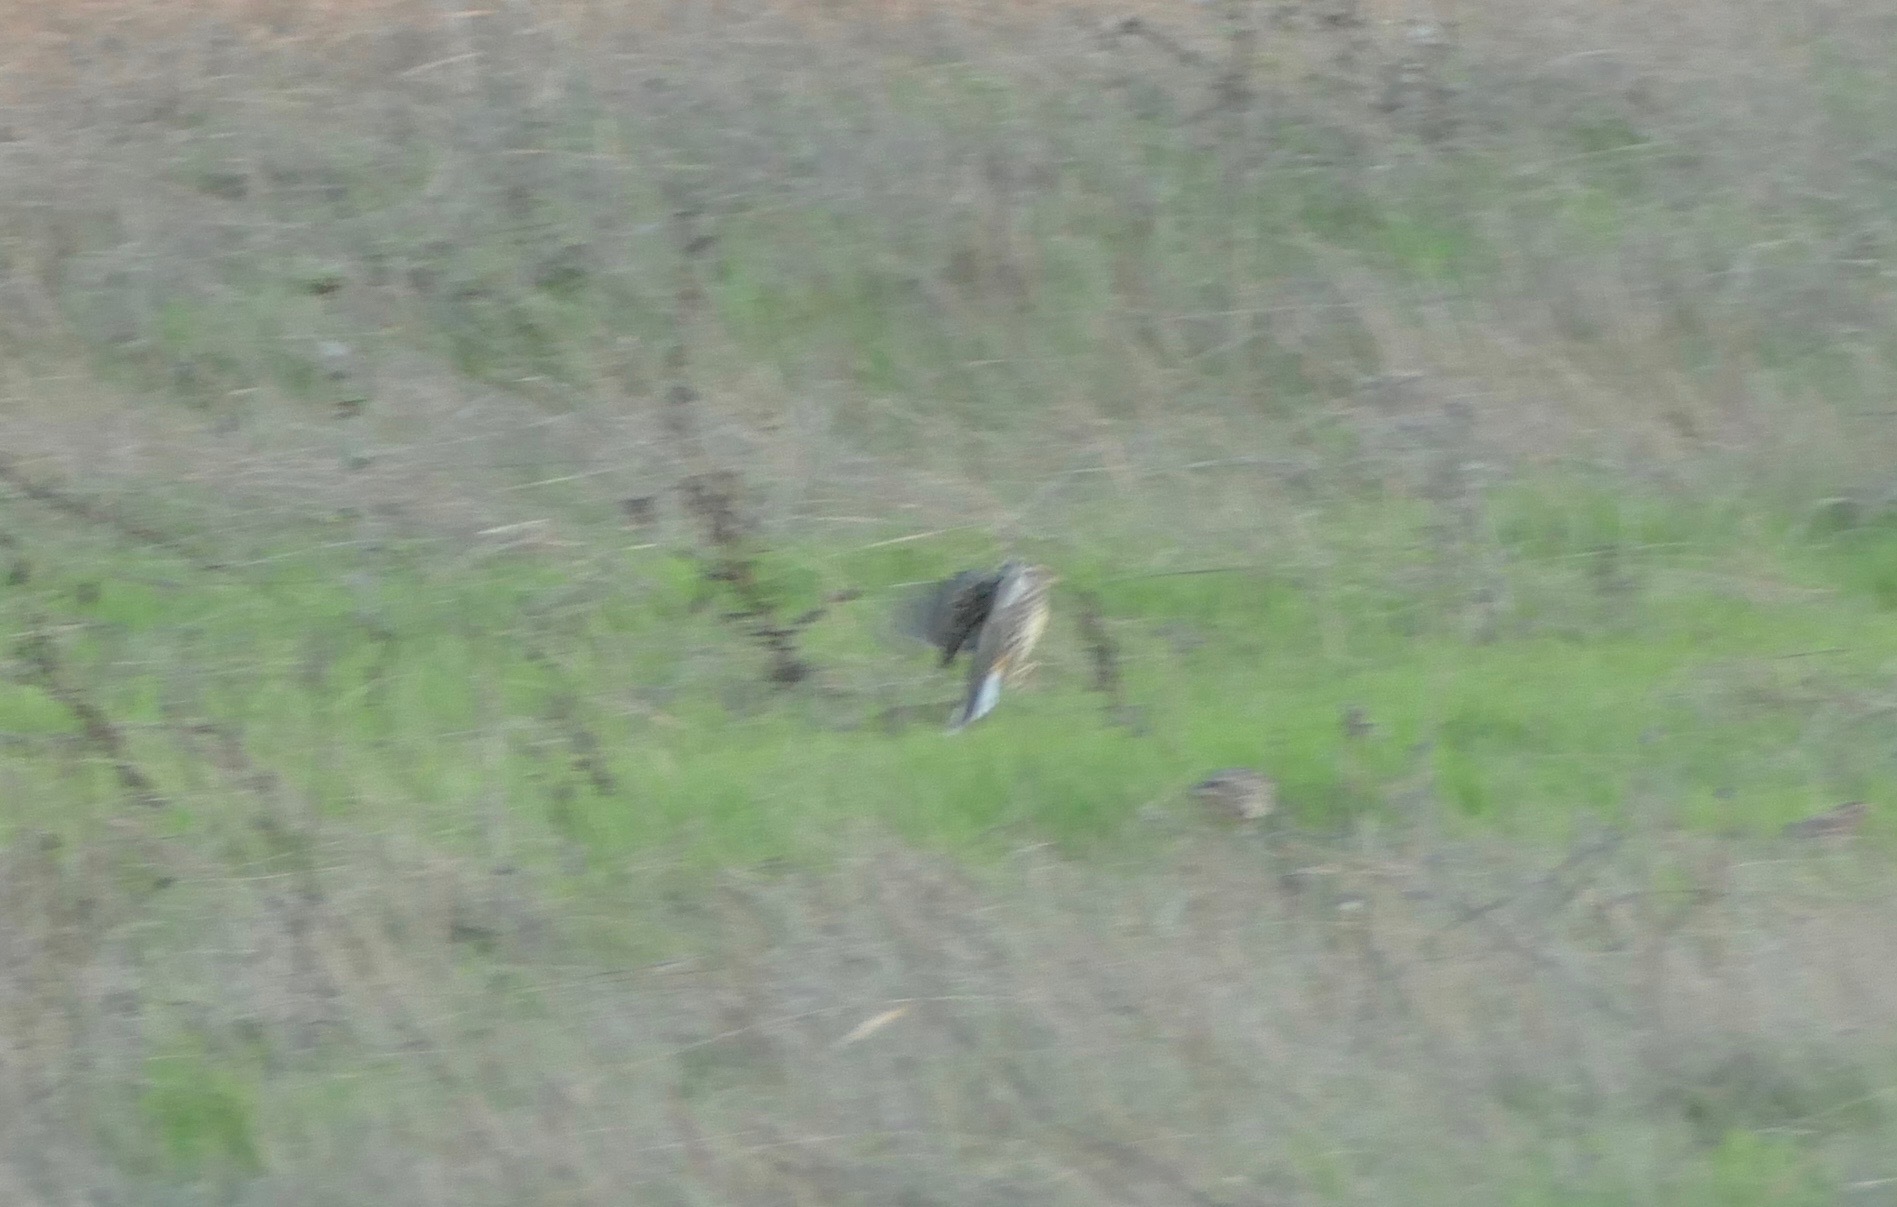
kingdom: Animalia
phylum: Chordata
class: Aves
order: Passeriformes
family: Icteridae
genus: Sturnella
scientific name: Sturnella neglecta
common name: Western meadowlark
